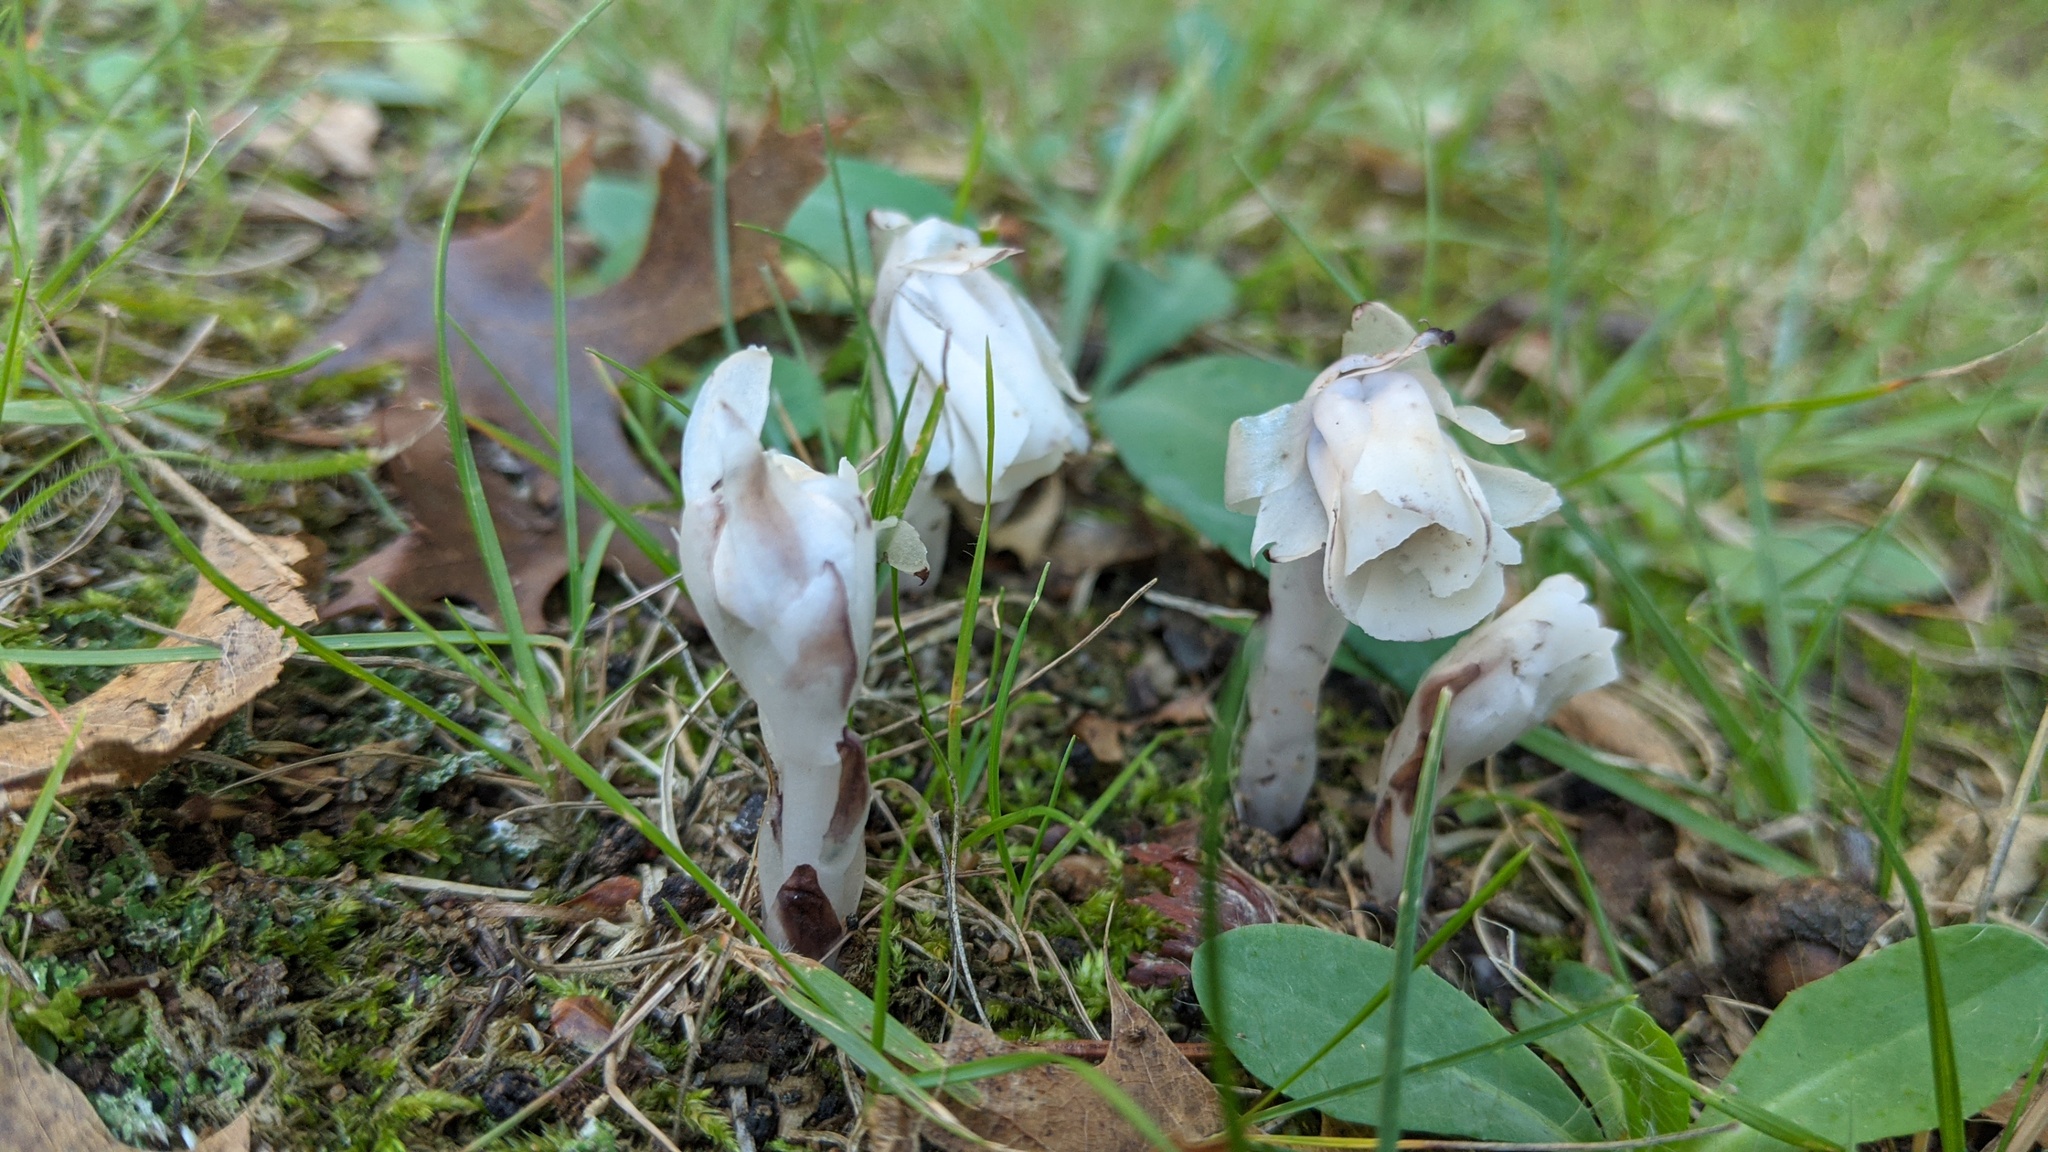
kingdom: Plantae
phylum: Tracheophyta
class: Magnoliopsida
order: Ericales
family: Ericaceae
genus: Monotropa
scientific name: Monotropa uniflora
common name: Convulsion root
